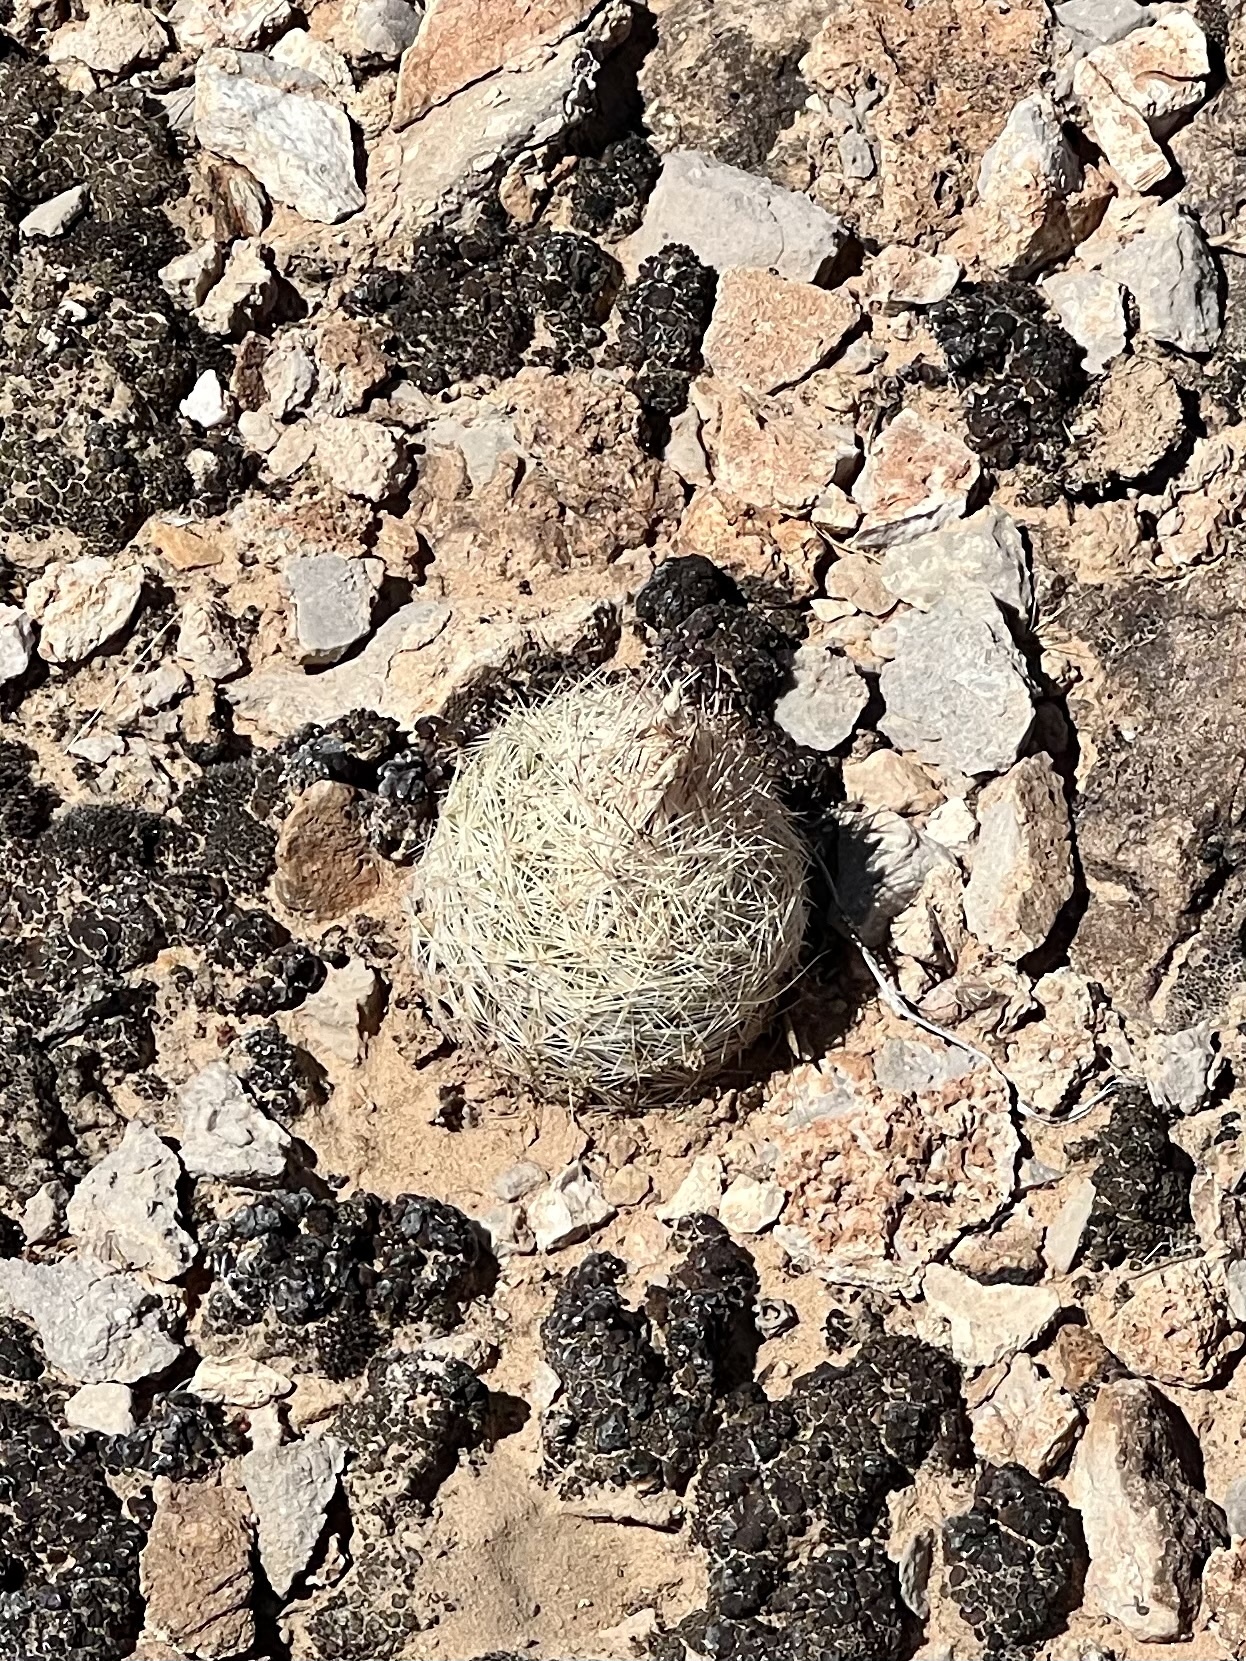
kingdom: Plantae
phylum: Tracheophyta
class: Magnoliopsida
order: Caryophyllales
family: Cactaceae
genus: Pelecyphora
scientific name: Pelecyphora dasyacantha
